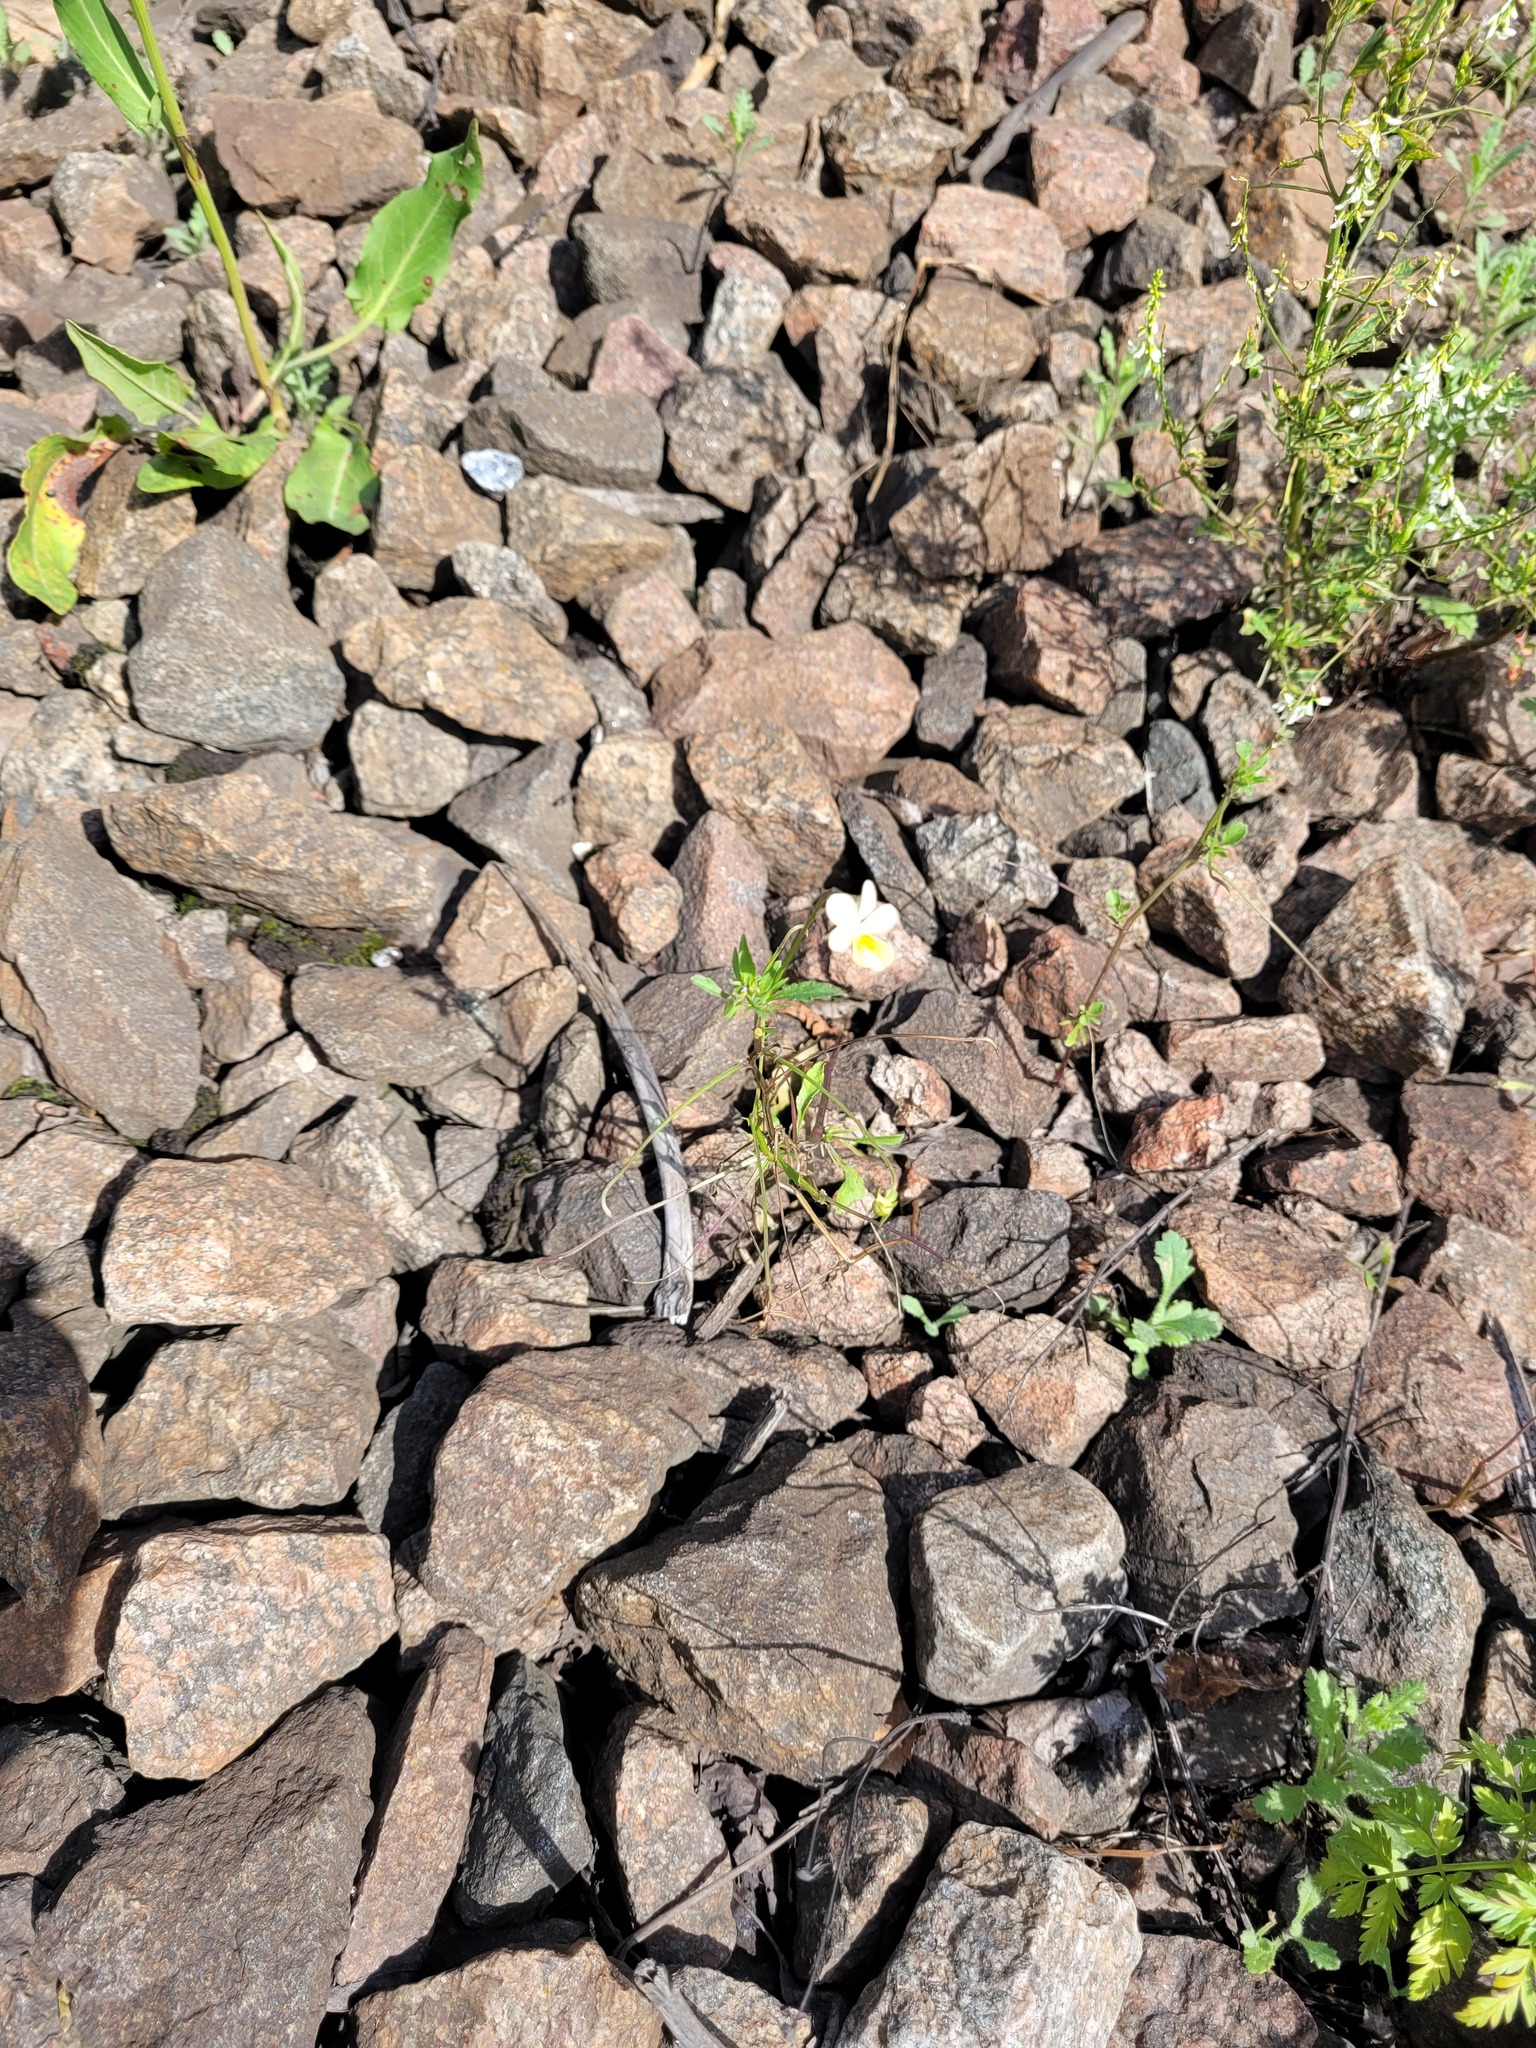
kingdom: Plantae
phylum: Tracheophyta
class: Magnoliopsida
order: Malpighiales
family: Violaceae
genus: Viola
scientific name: Viola contempta
